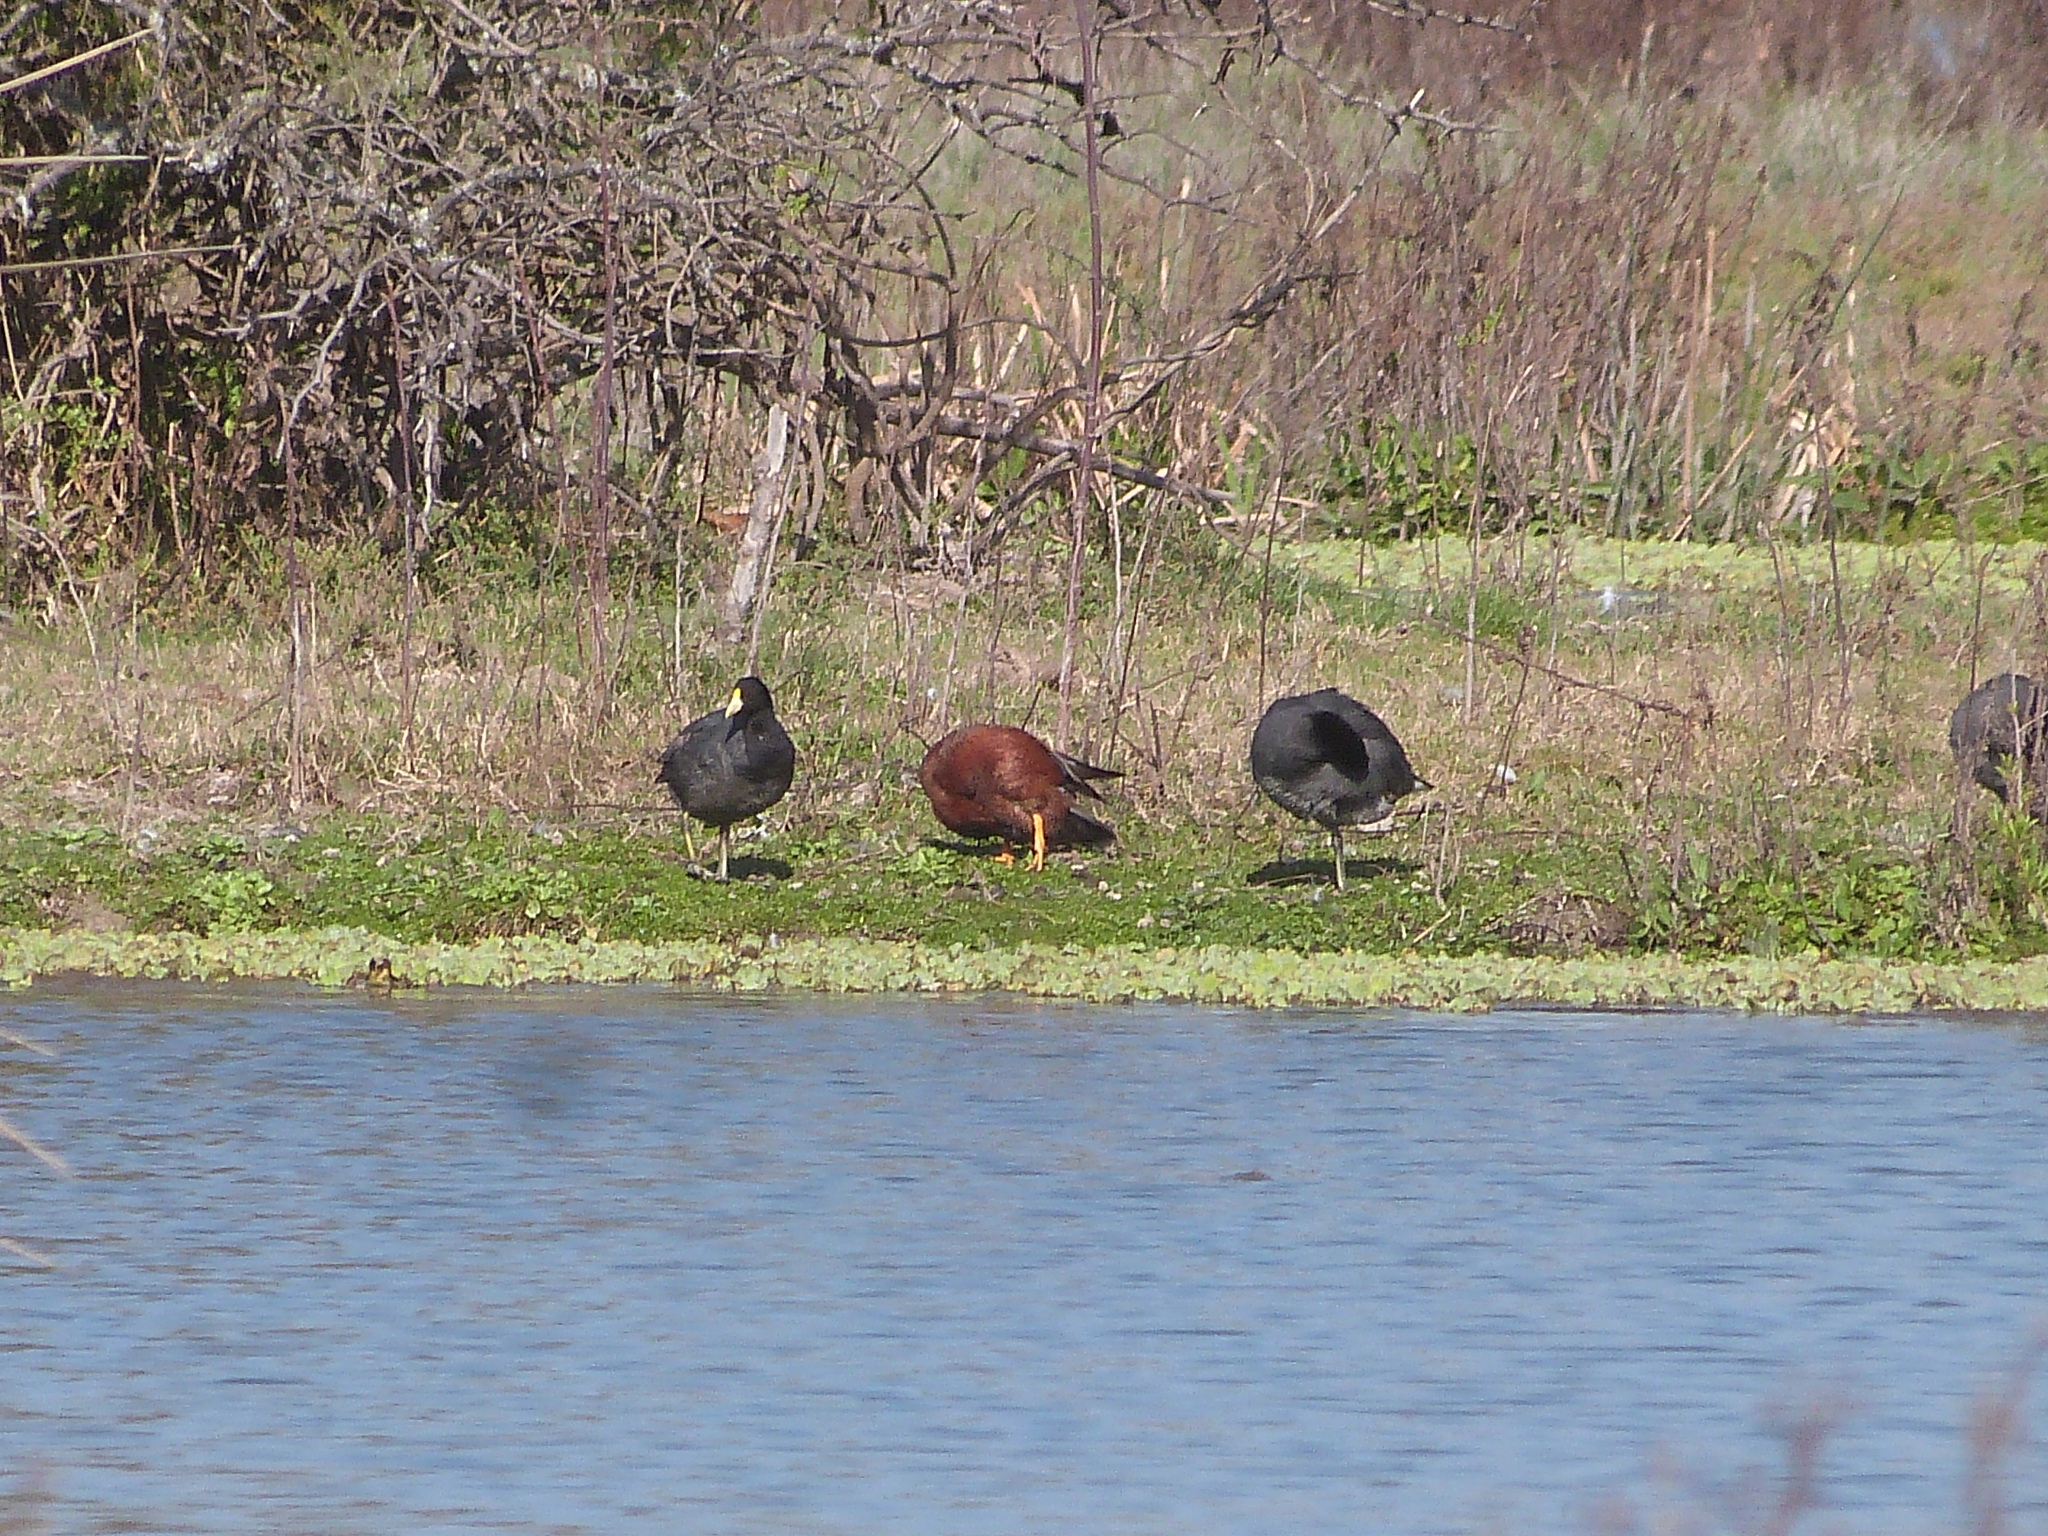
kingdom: Animalia
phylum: Chordata
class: Aves
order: Gruiformes
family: Rallidae
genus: Fulica
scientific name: Fulica leucoptera
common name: White-winged coot
